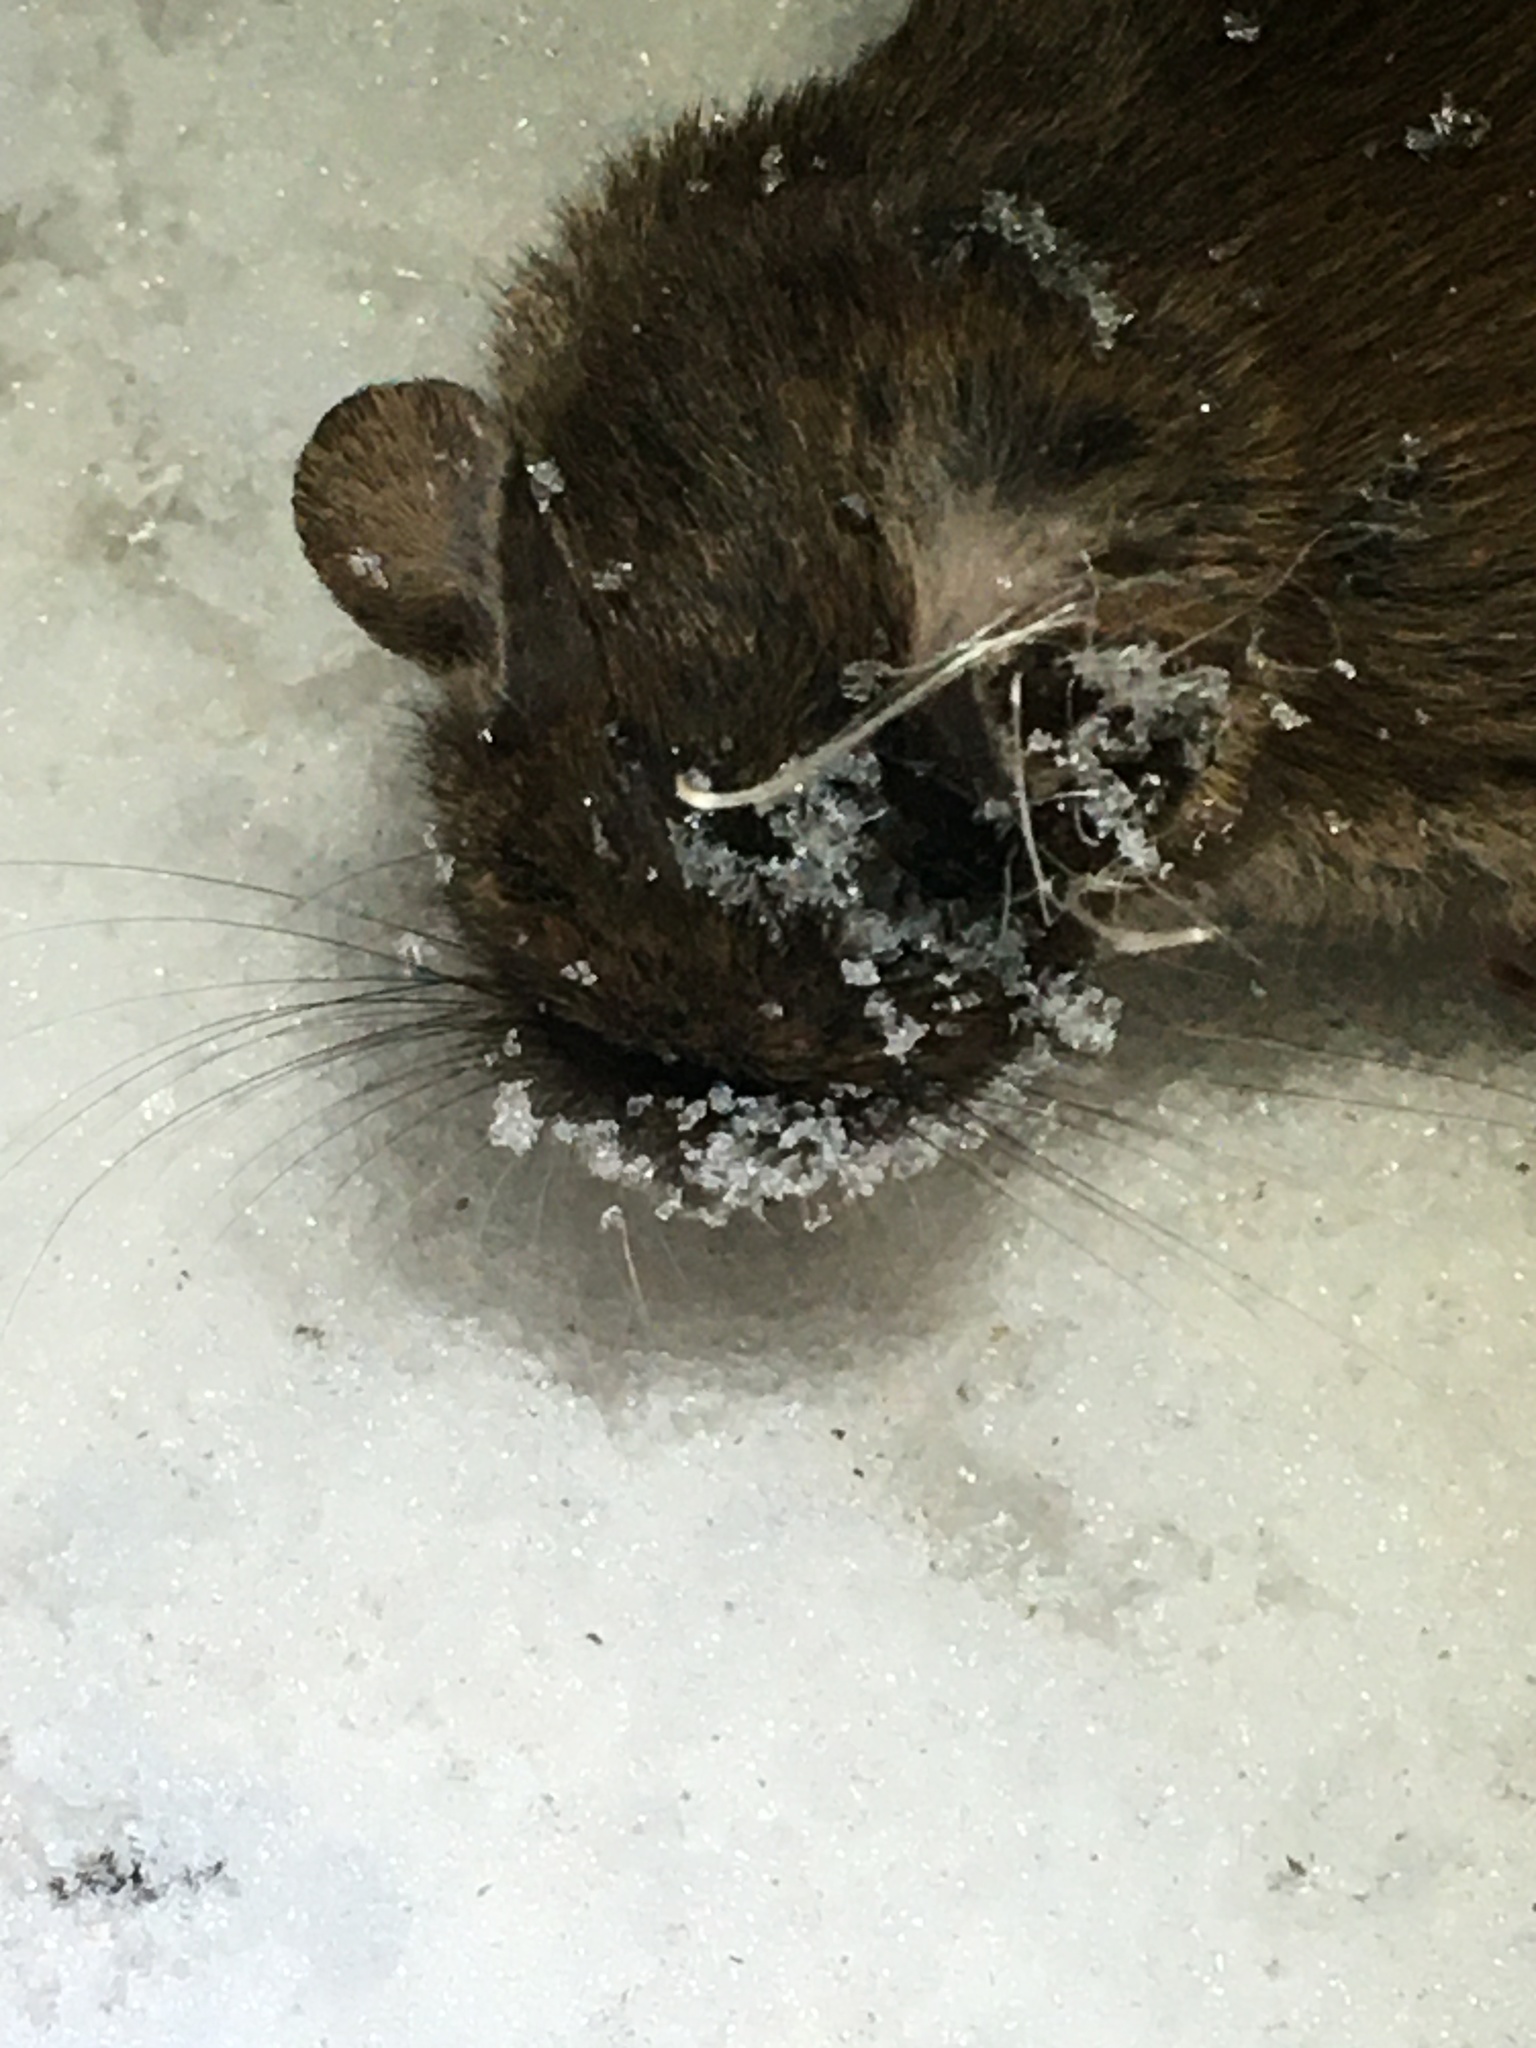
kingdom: Animalia
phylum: Chordata
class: Mammalia
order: Rodentia
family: Muridae
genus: Mus
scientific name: Mus musculus
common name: House mouse
